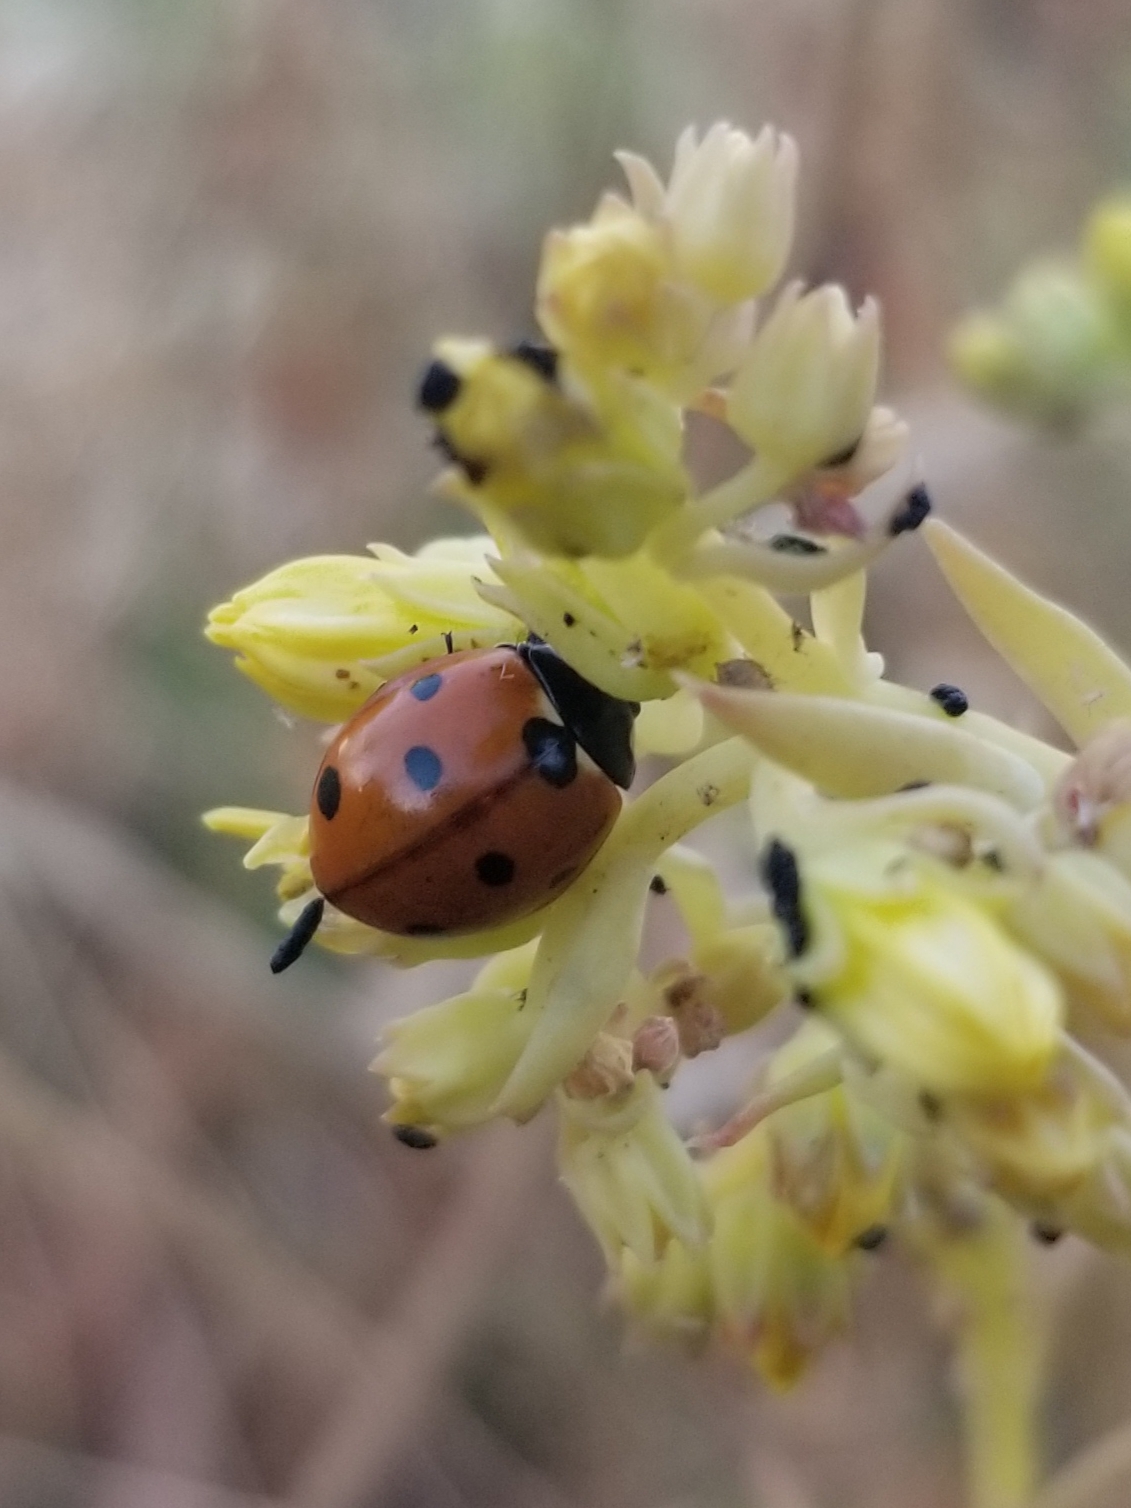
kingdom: Animalia
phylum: Arthropoda
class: Insecta
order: Coleoptera
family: Coccinellidae
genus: Coccinella
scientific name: Coccinella septempunctata
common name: Sevenspotted lady beetle
